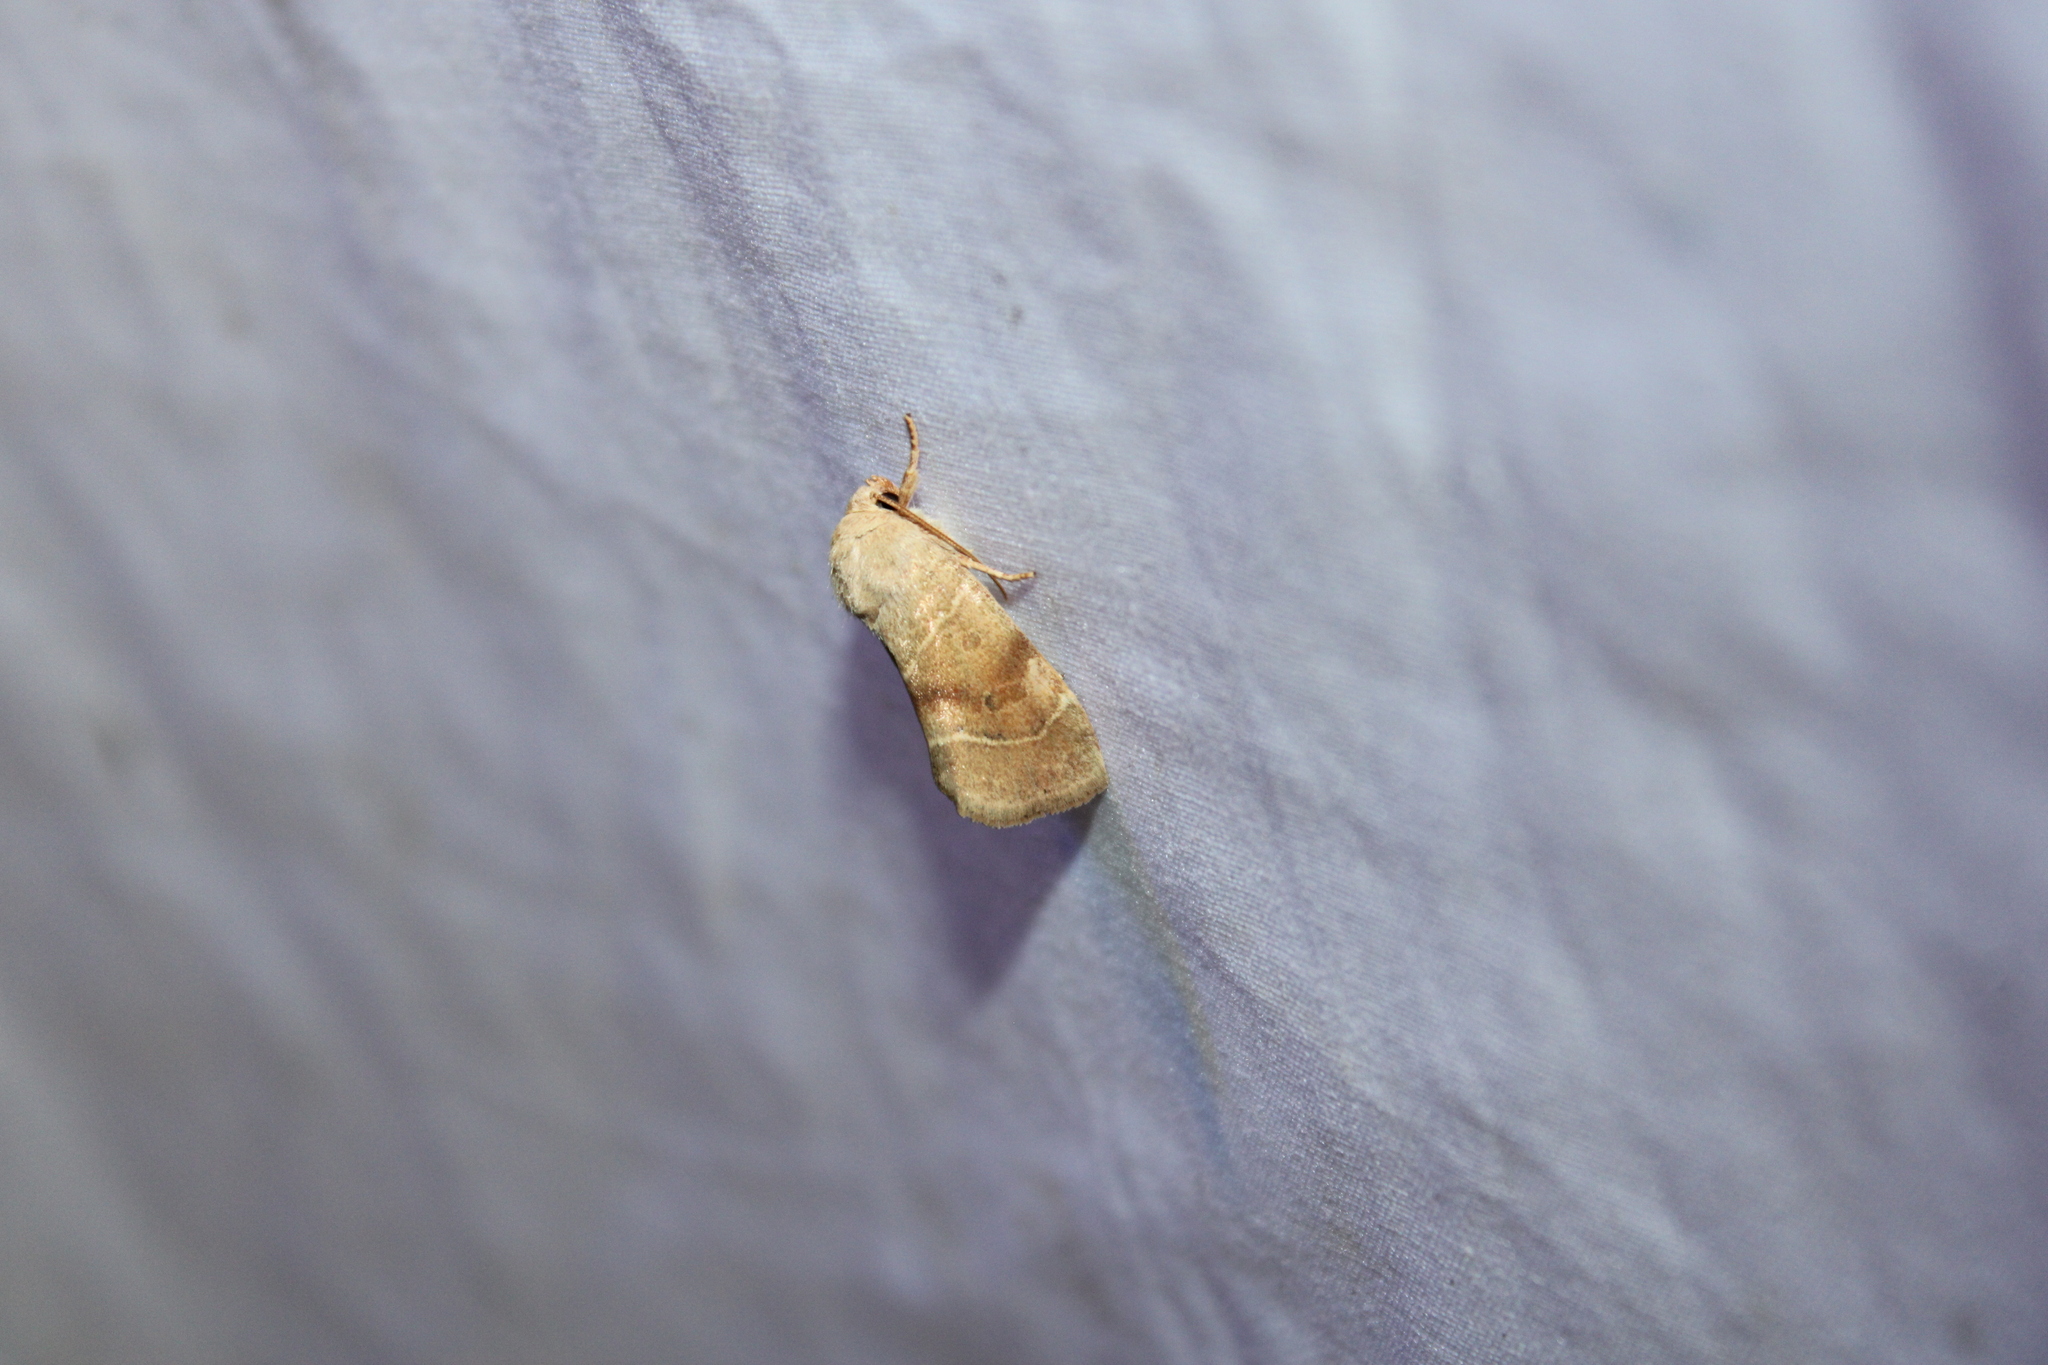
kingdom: Animalia
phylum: Arthropoda
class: Insecta
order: Lepidoptera
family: Noctuidae
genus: Cosmia
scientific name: Cosmia calami
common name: American dun-bar moth
